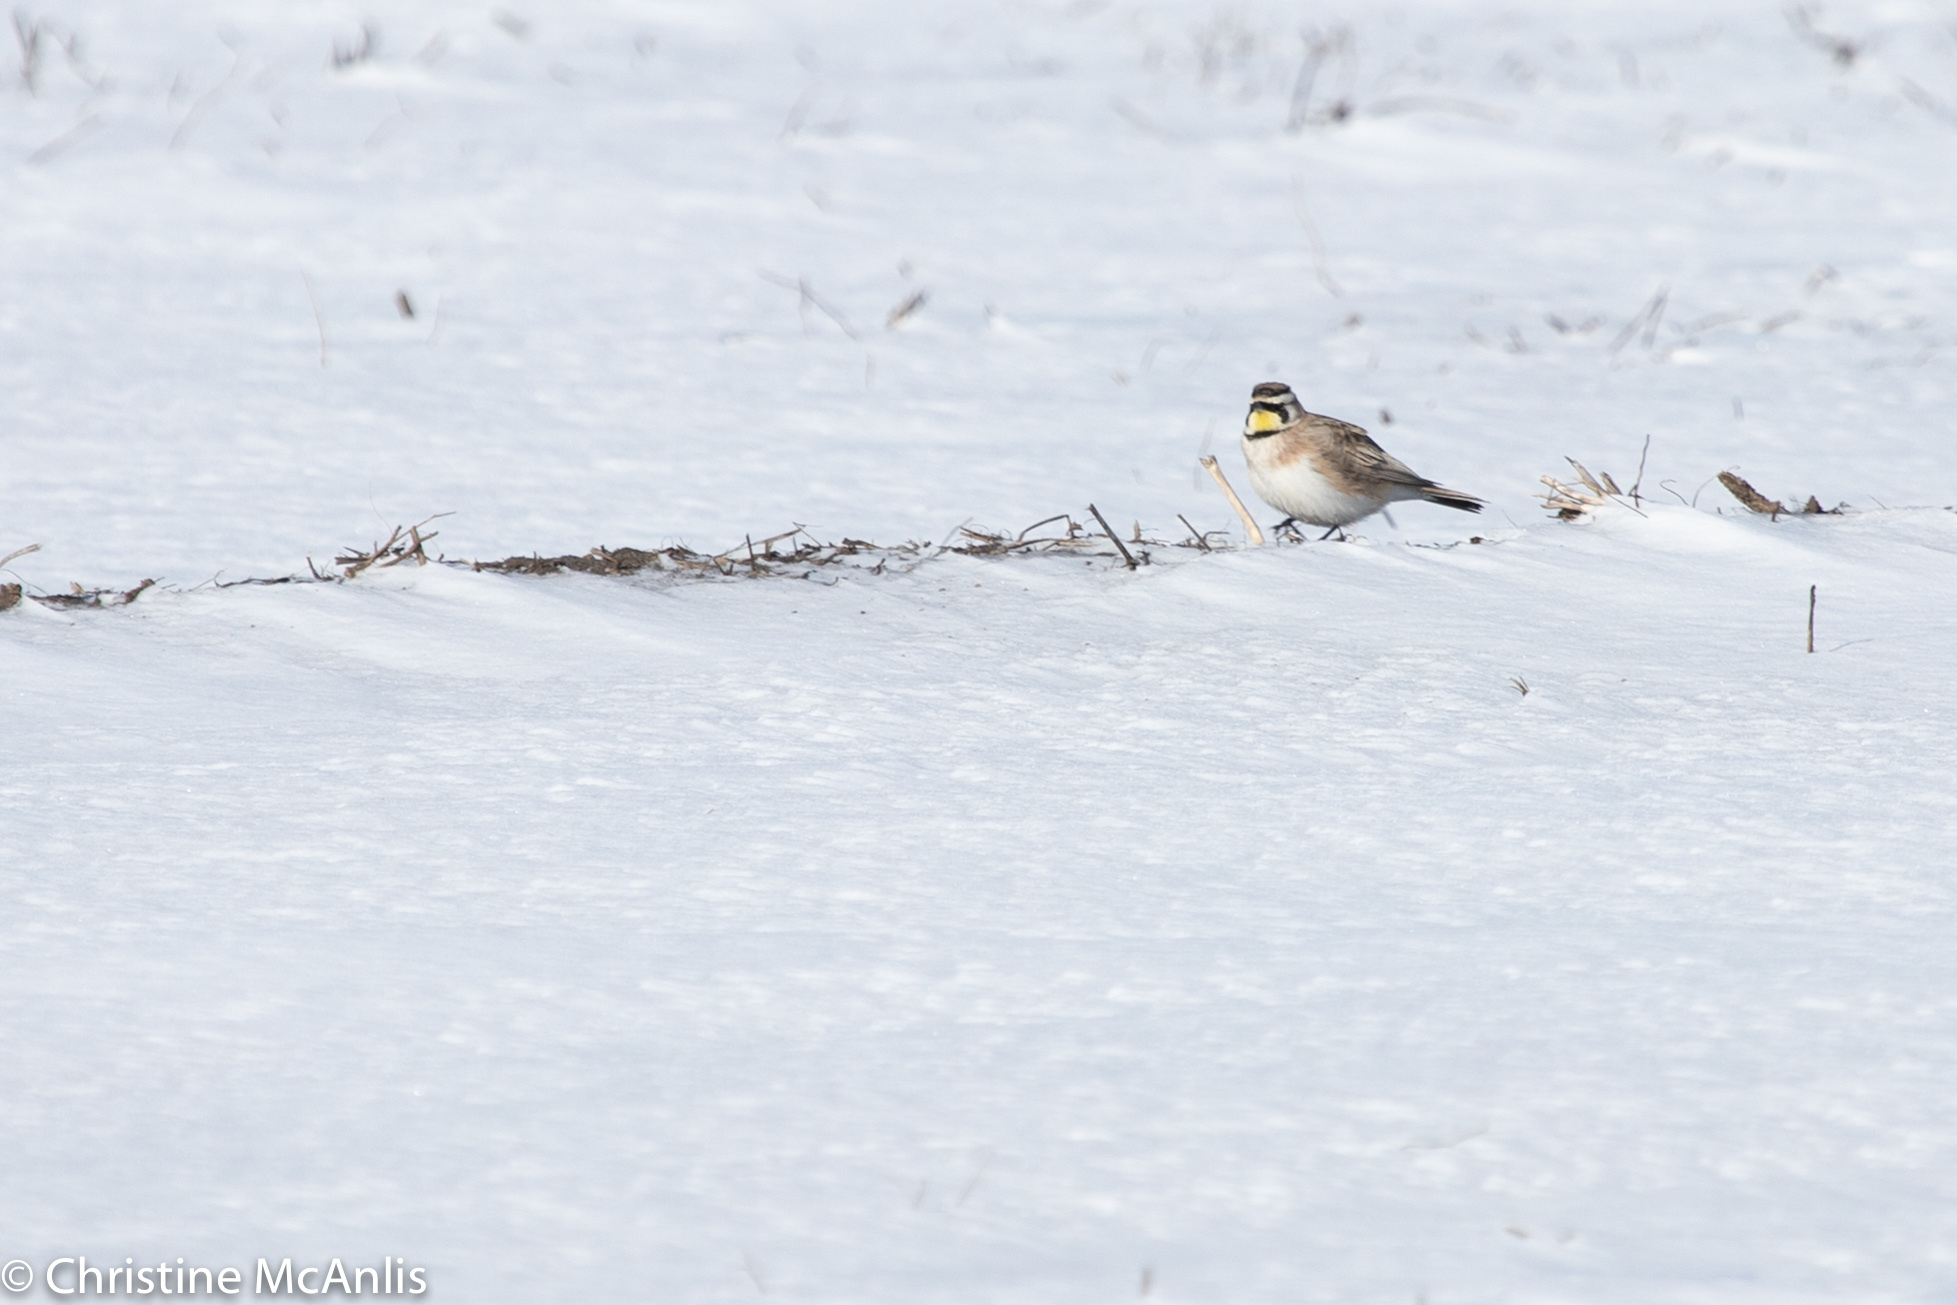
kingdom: Animalia
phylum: Chordata
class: Aves
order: Passeriformes
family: Alaudidae
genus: Eremophila
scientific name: Eremophila alpestris
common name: Horned lark
